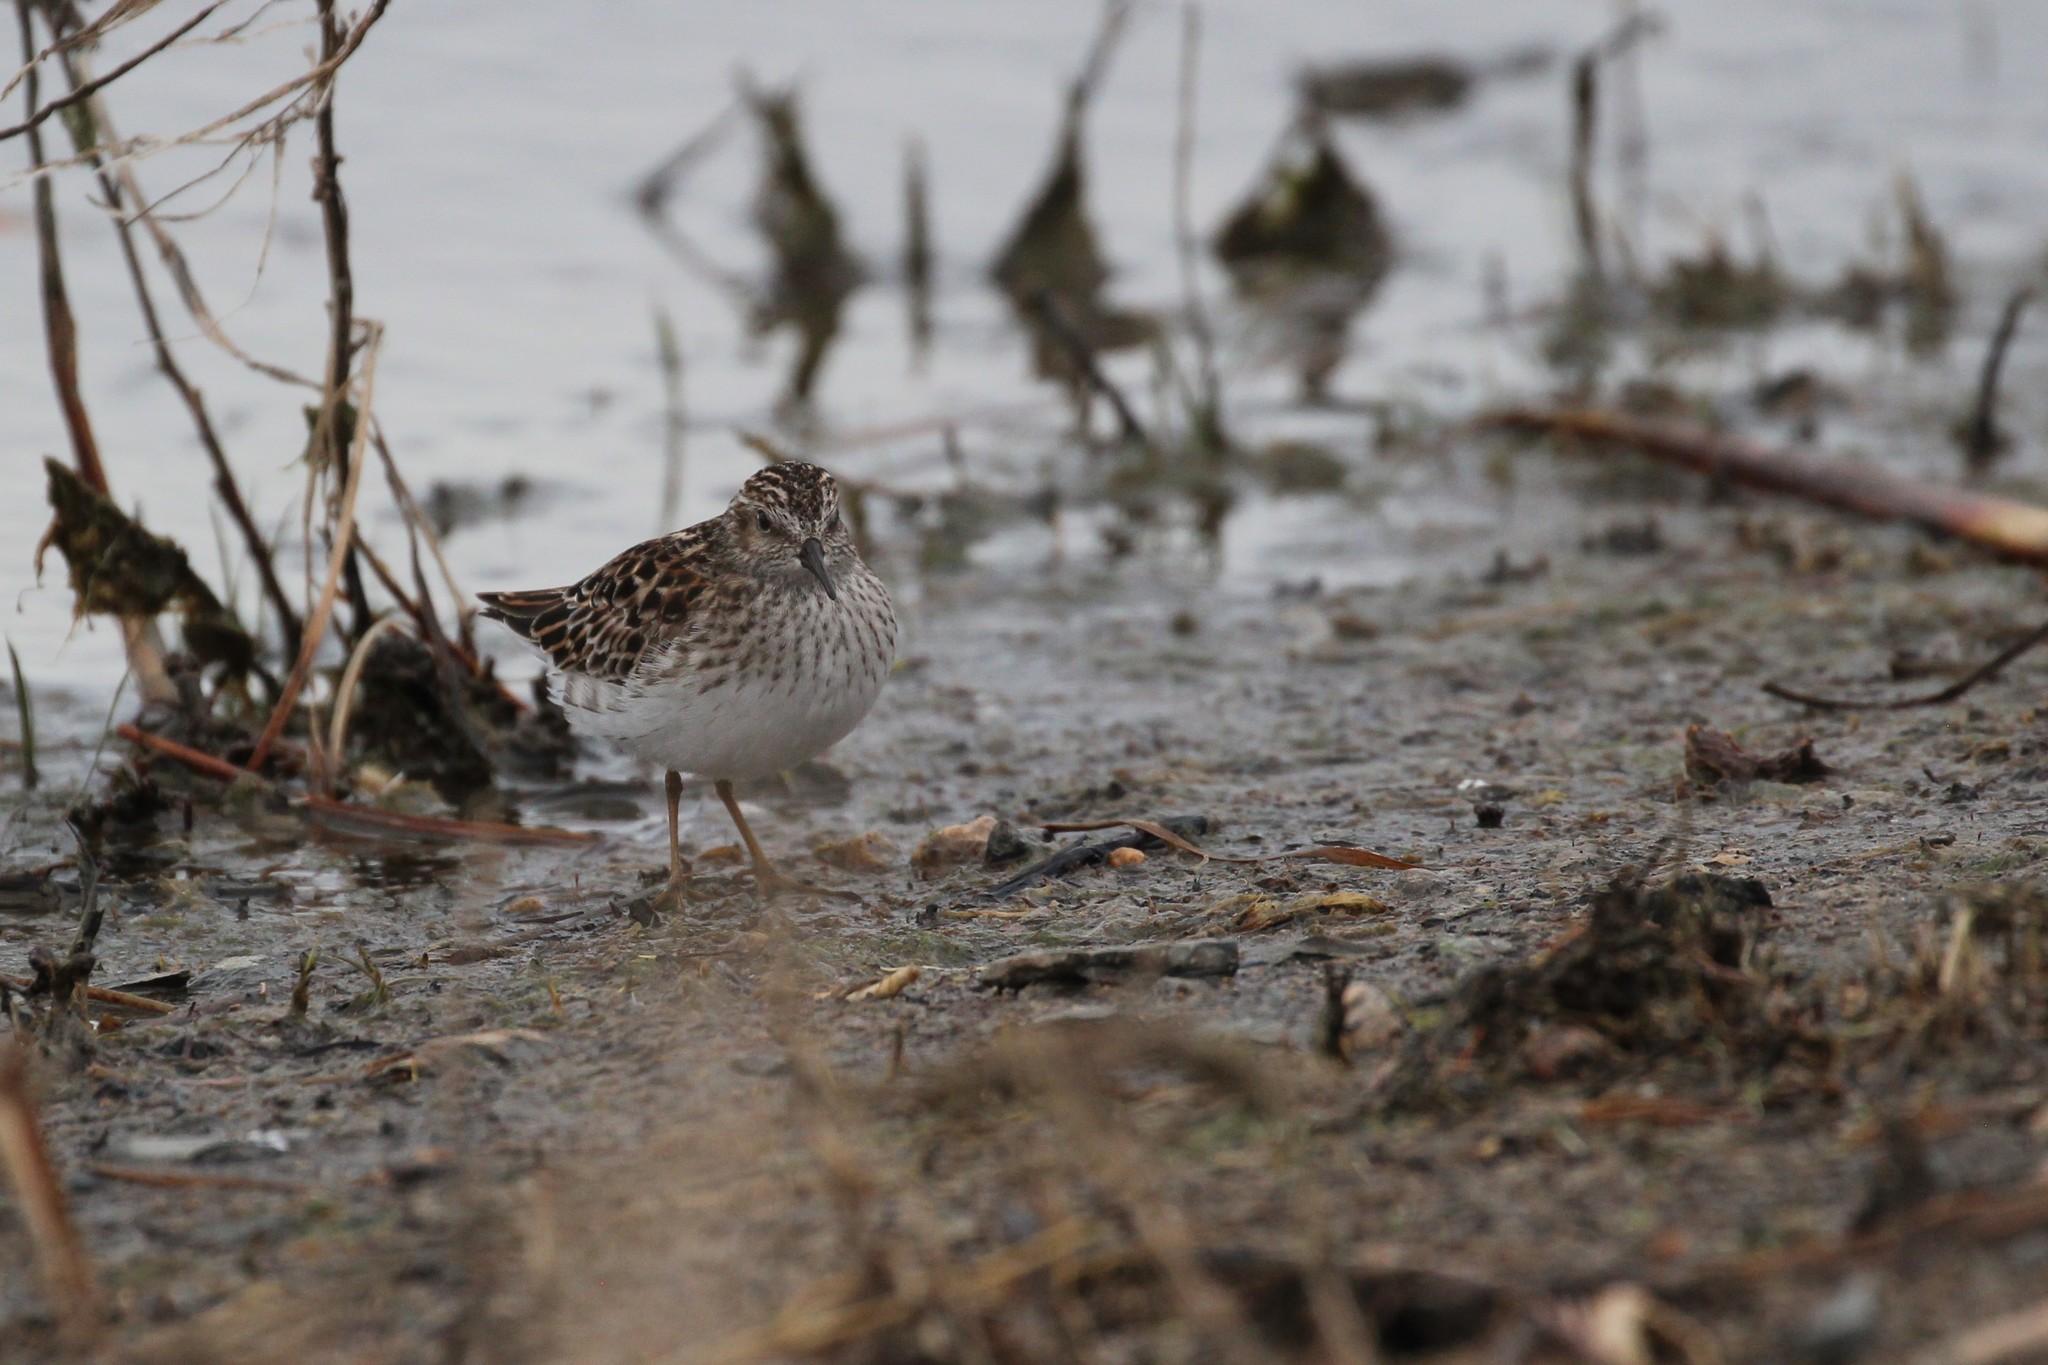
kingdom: Animalia
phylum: Chordata
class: Aves
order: Charadriiformes
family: Scolopacidae
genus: Calidris
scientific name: Calidris minutilla
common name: Least sandpiper
